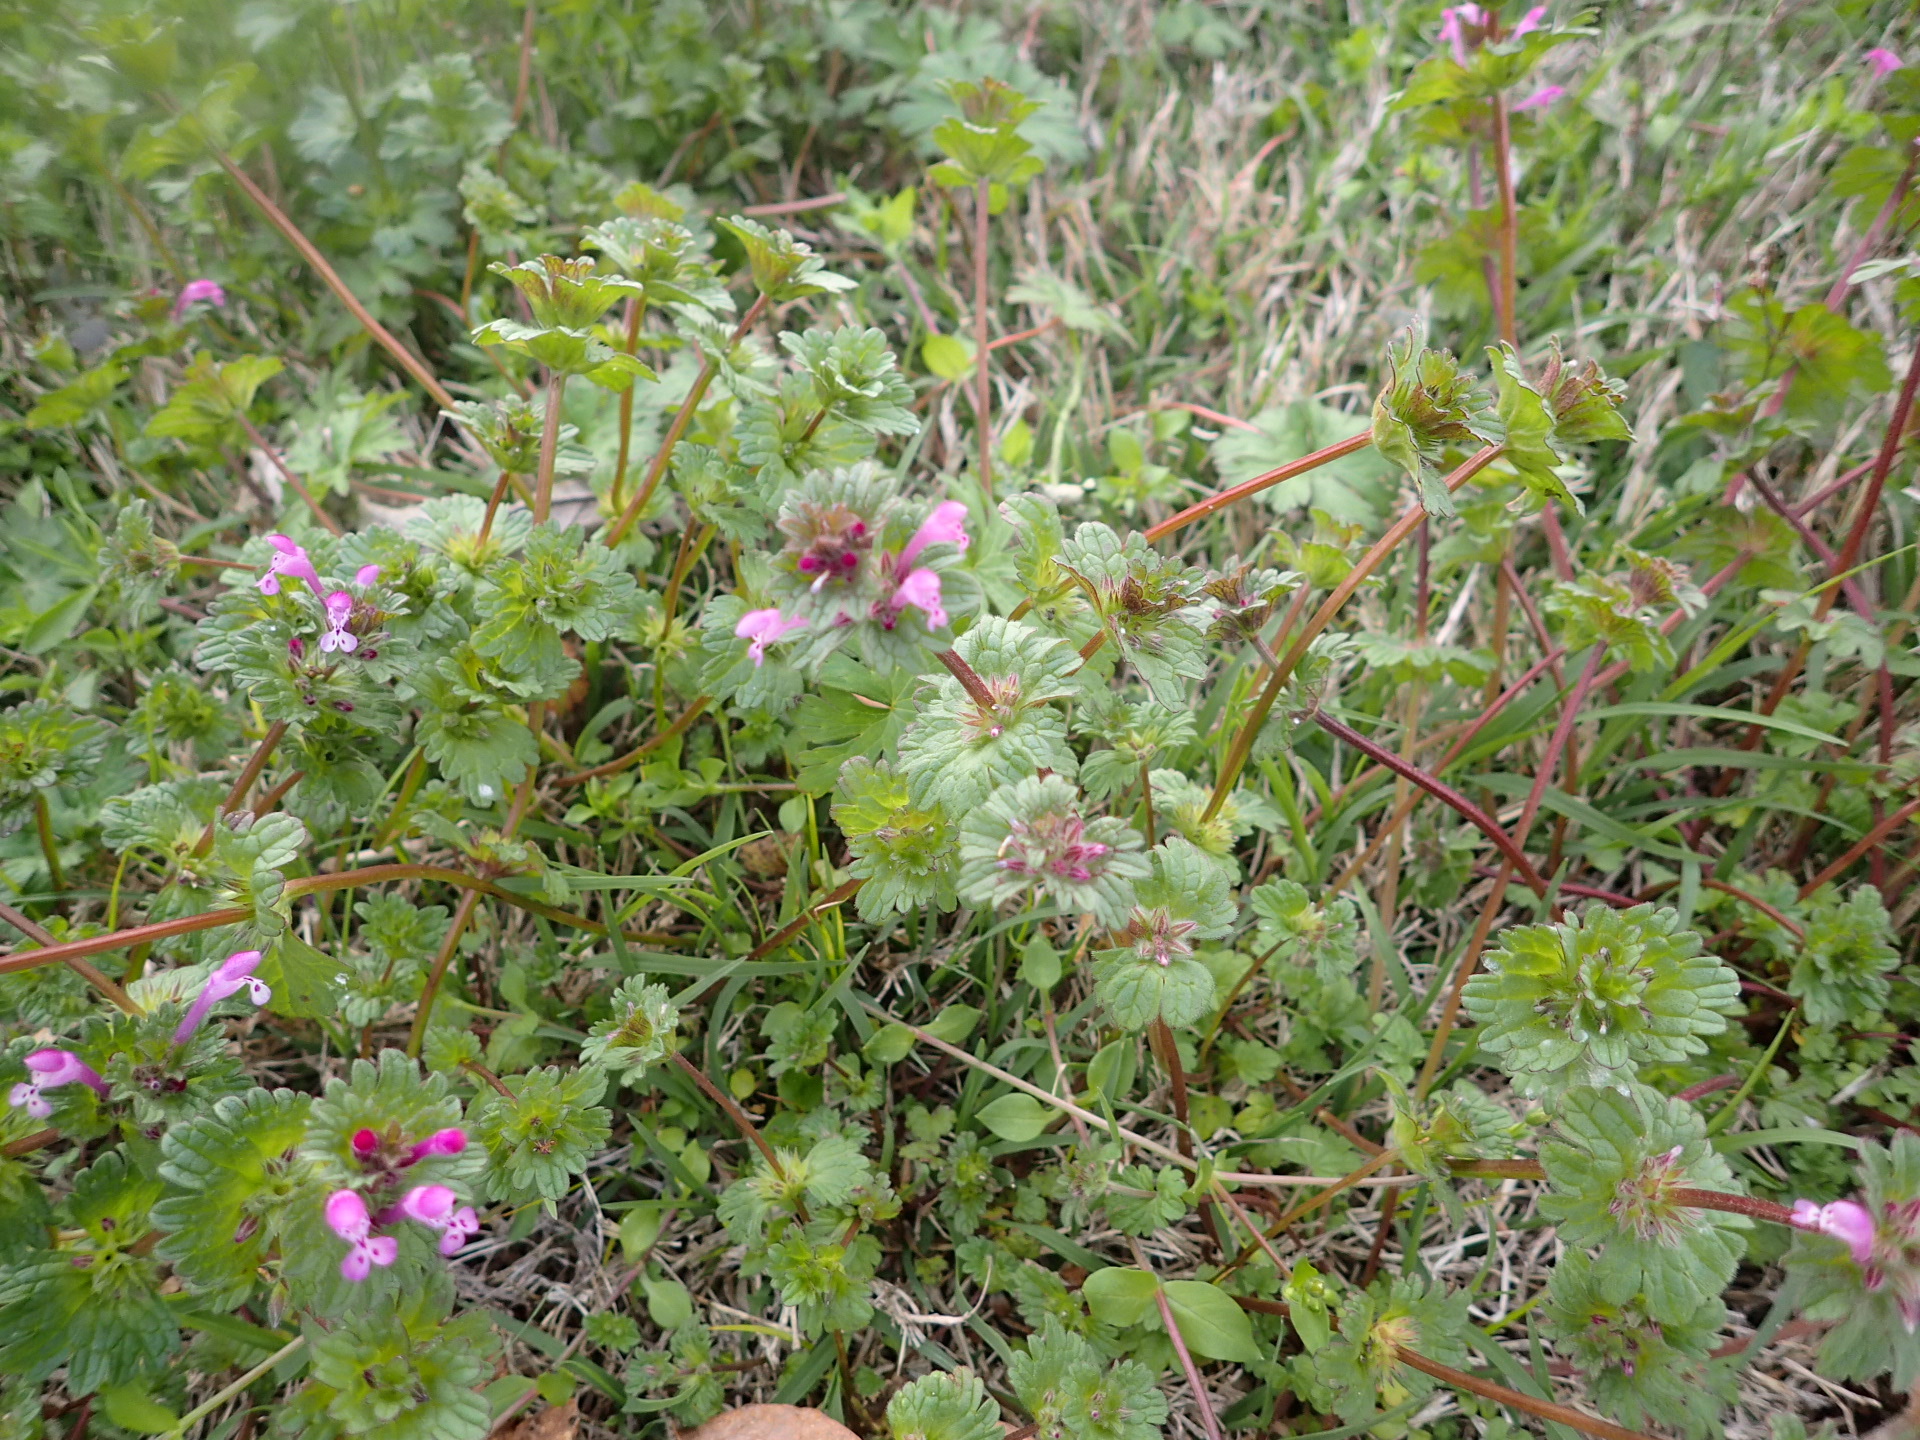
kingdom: Plantae
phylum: Tracheophyta
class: Magnoliopsida
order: Lamiales
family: Lamiaceae
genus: Lamium
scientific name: Lamium amplexicaule
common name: Henbit dead-nettle
